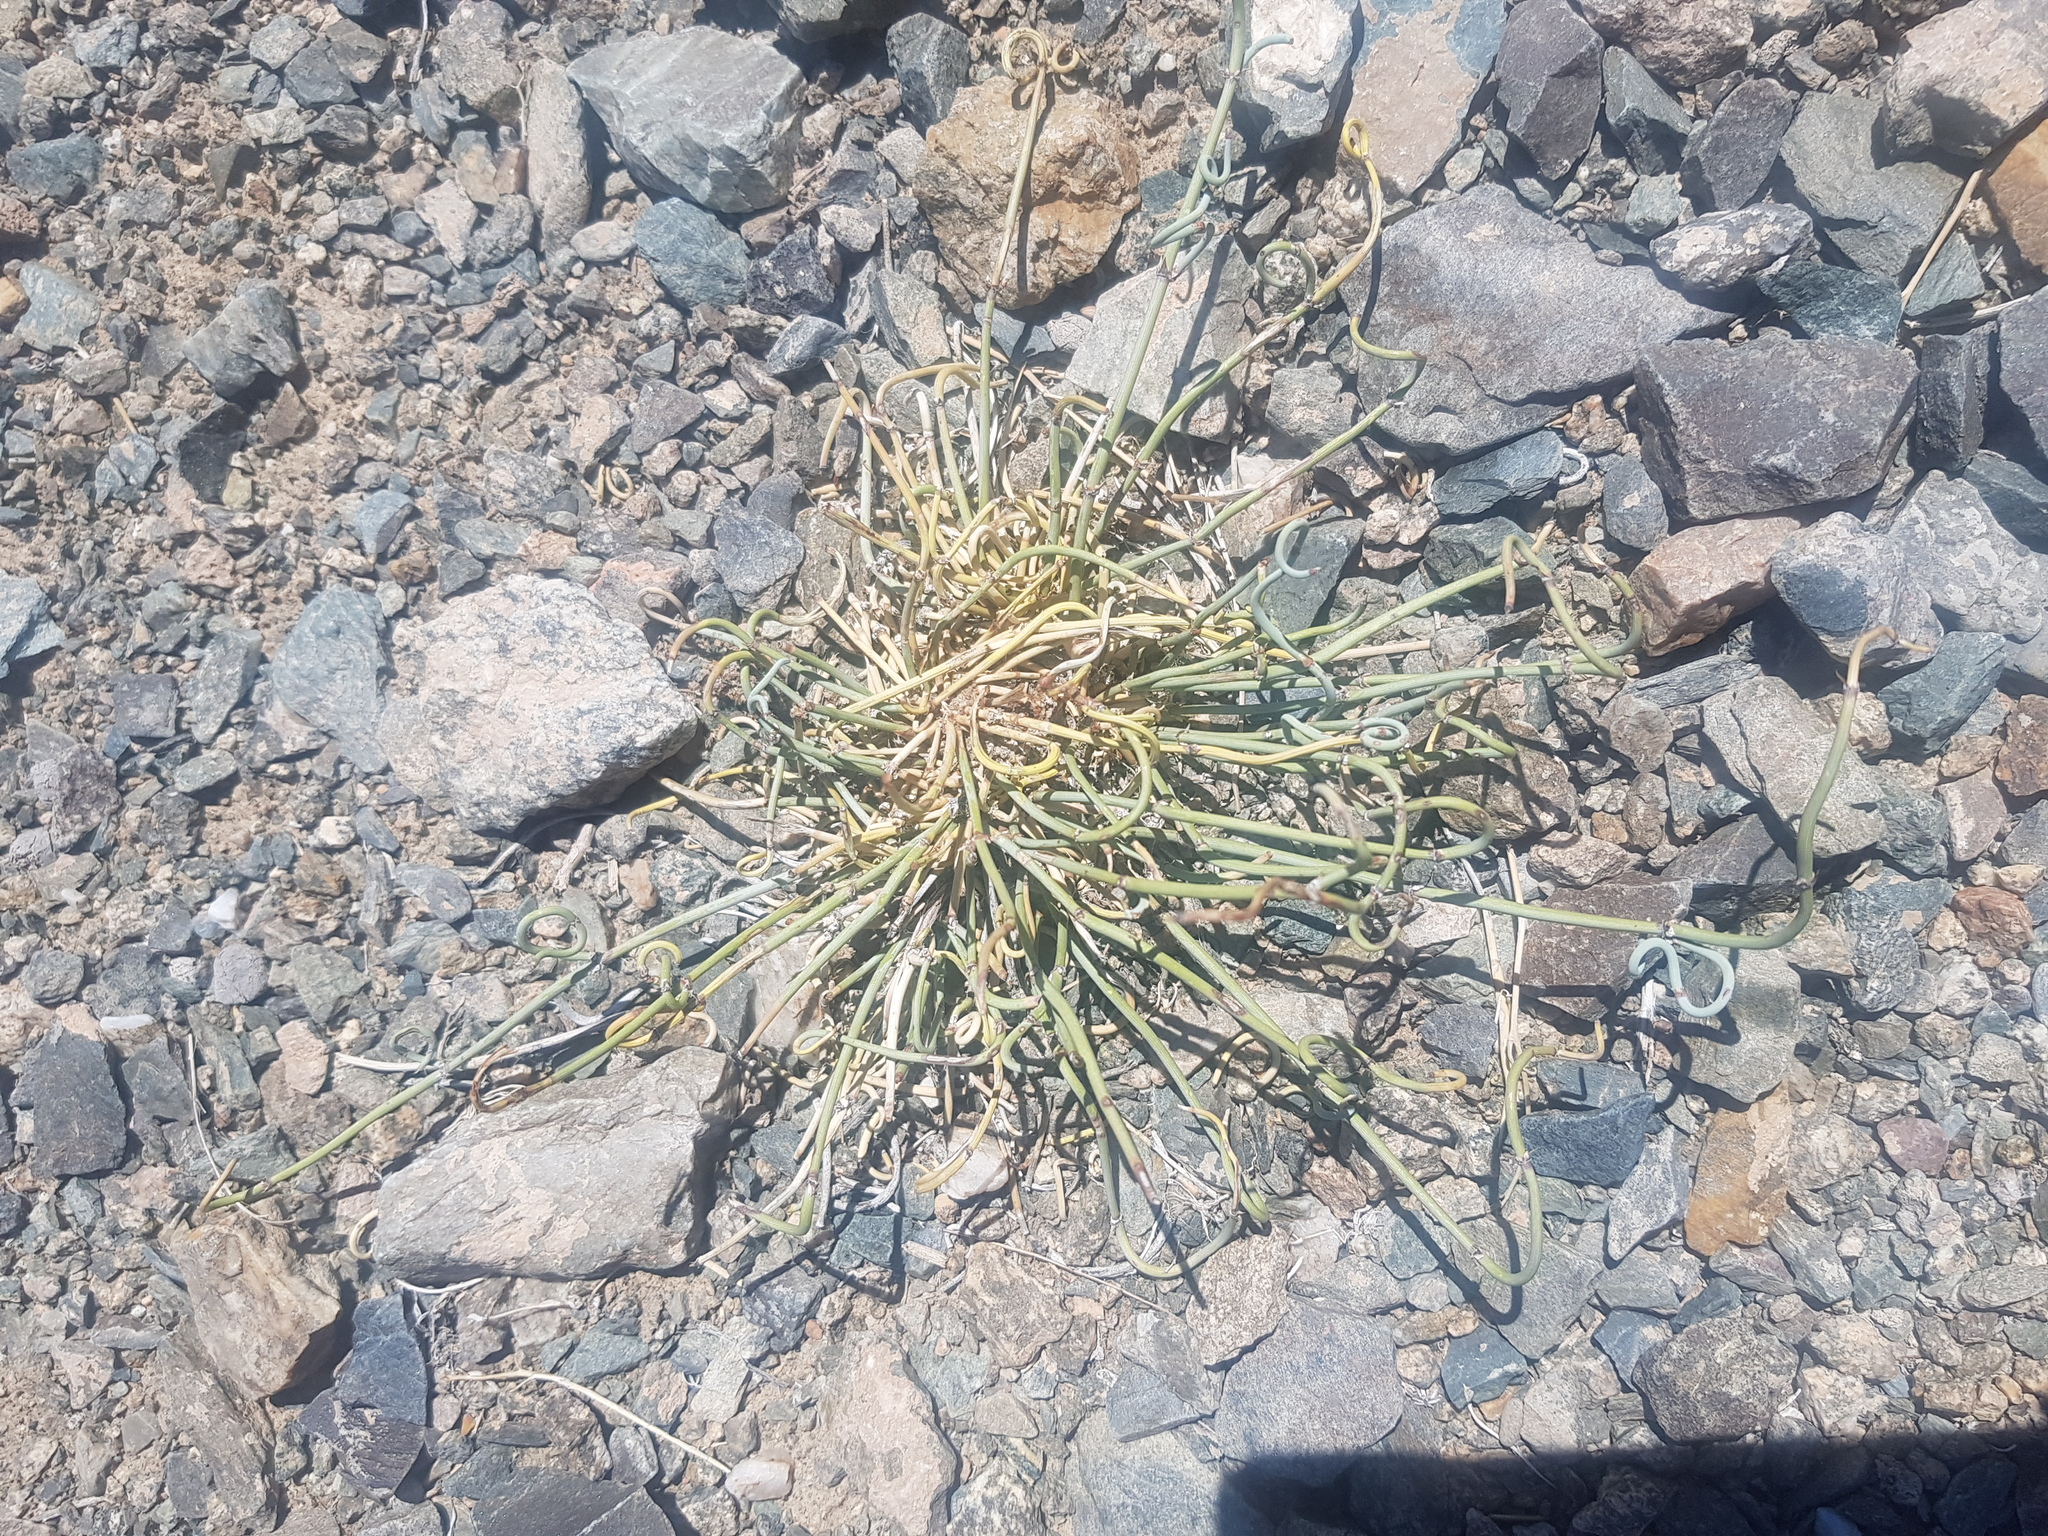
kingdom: Plantae
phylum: Tracheophyta
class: Gnetopsida
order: Ephedrales
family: Ephedraceae
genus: Ephedra
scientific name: Ephedra przewalskii
